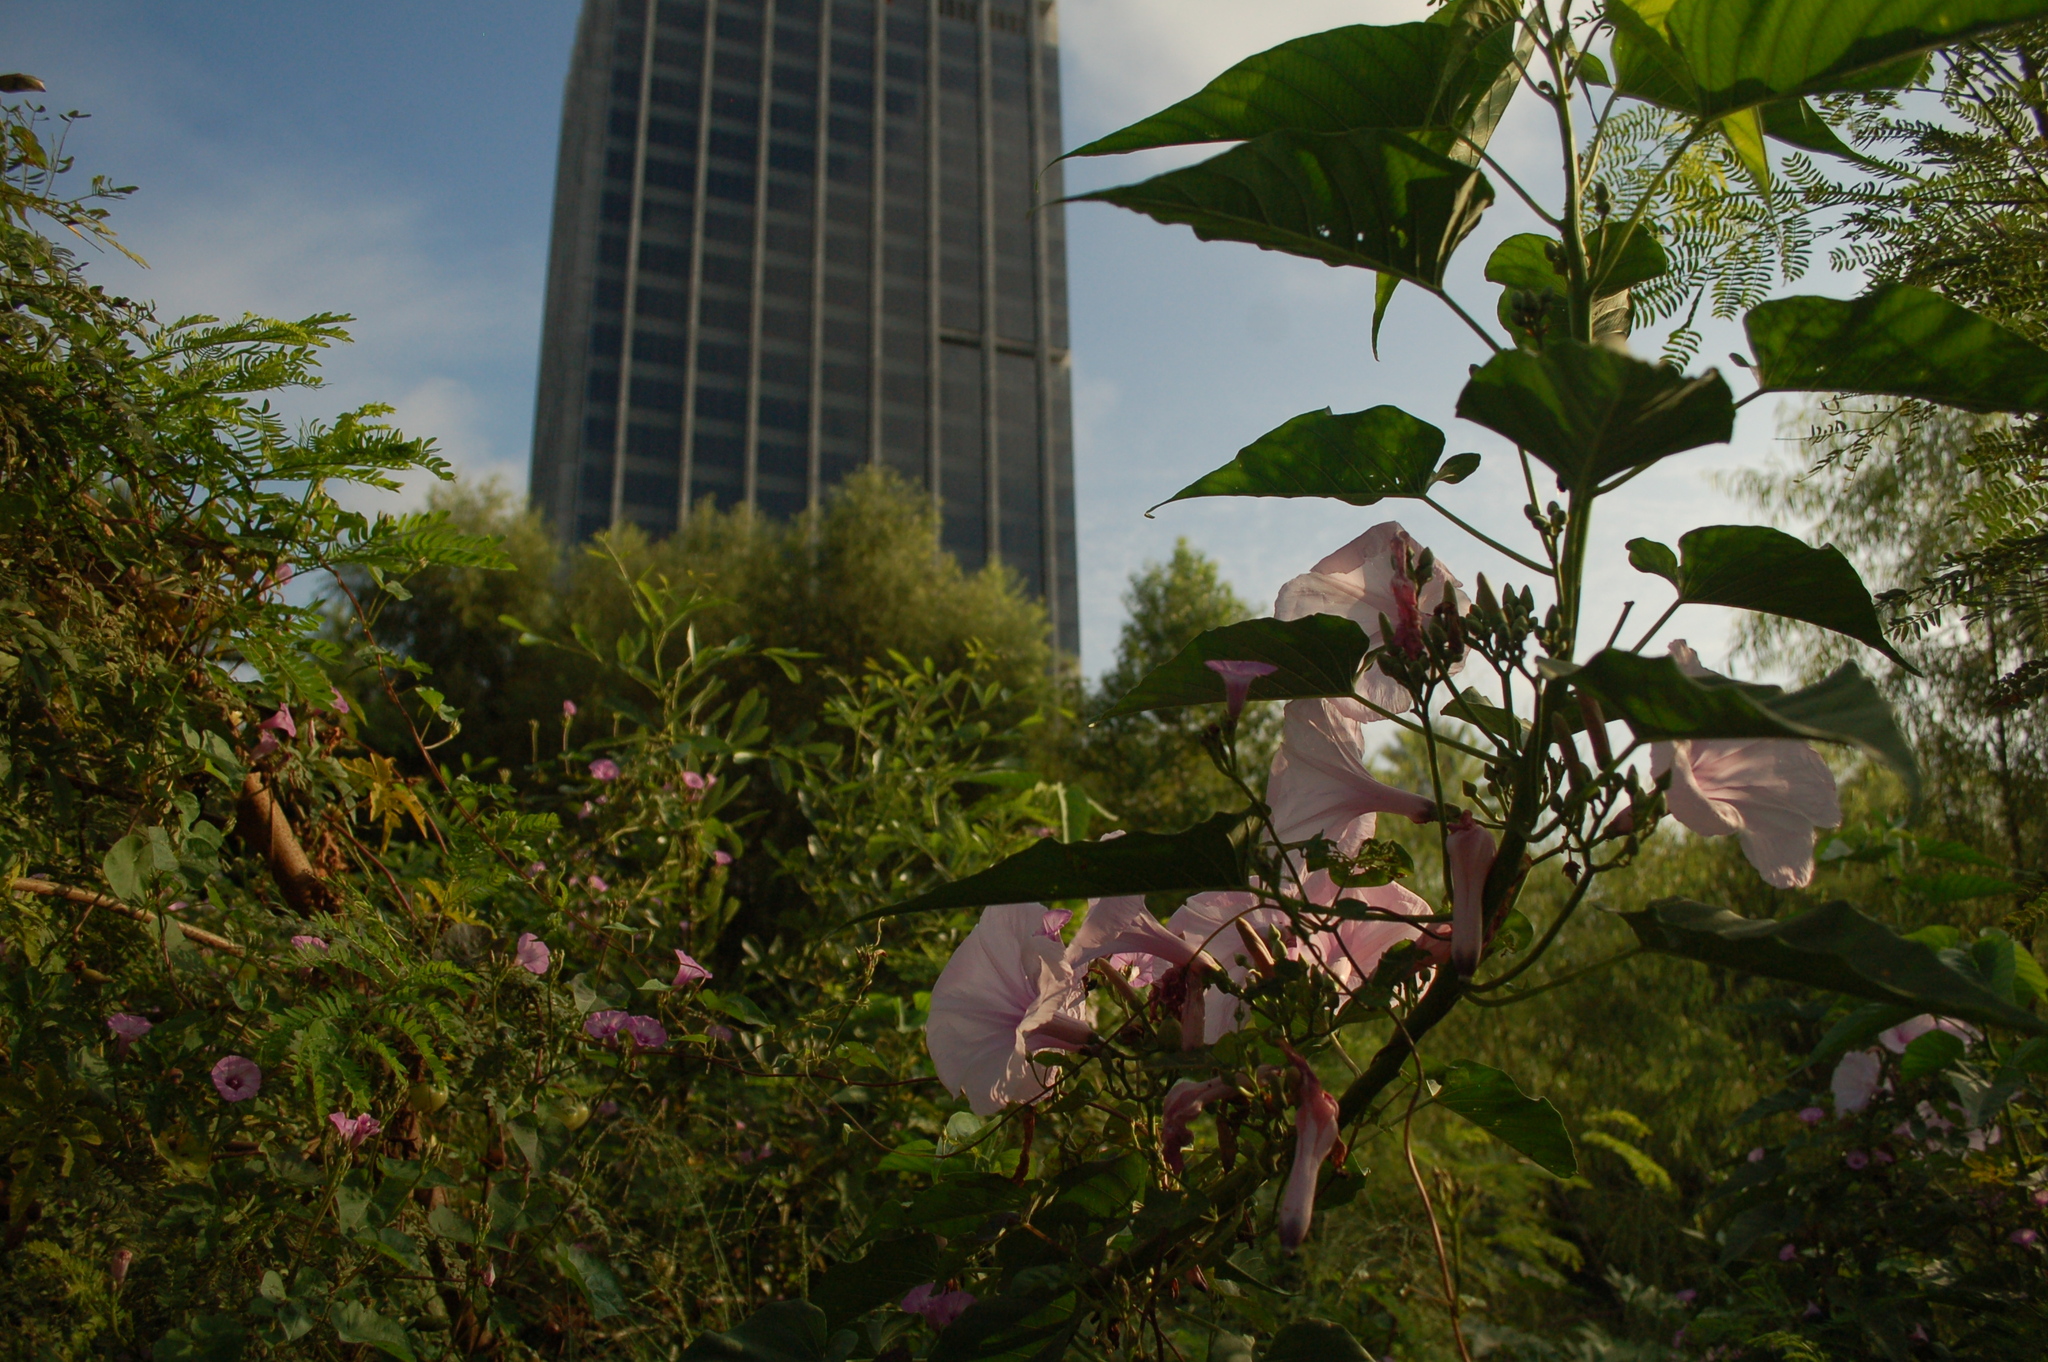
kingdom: Plantae
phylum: Tracheophyta
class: Magnoliopsida
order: Solanales
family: Convolvulaceae
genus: Ipomoea
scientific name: Ipomoea carnea
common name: Morning-glory
